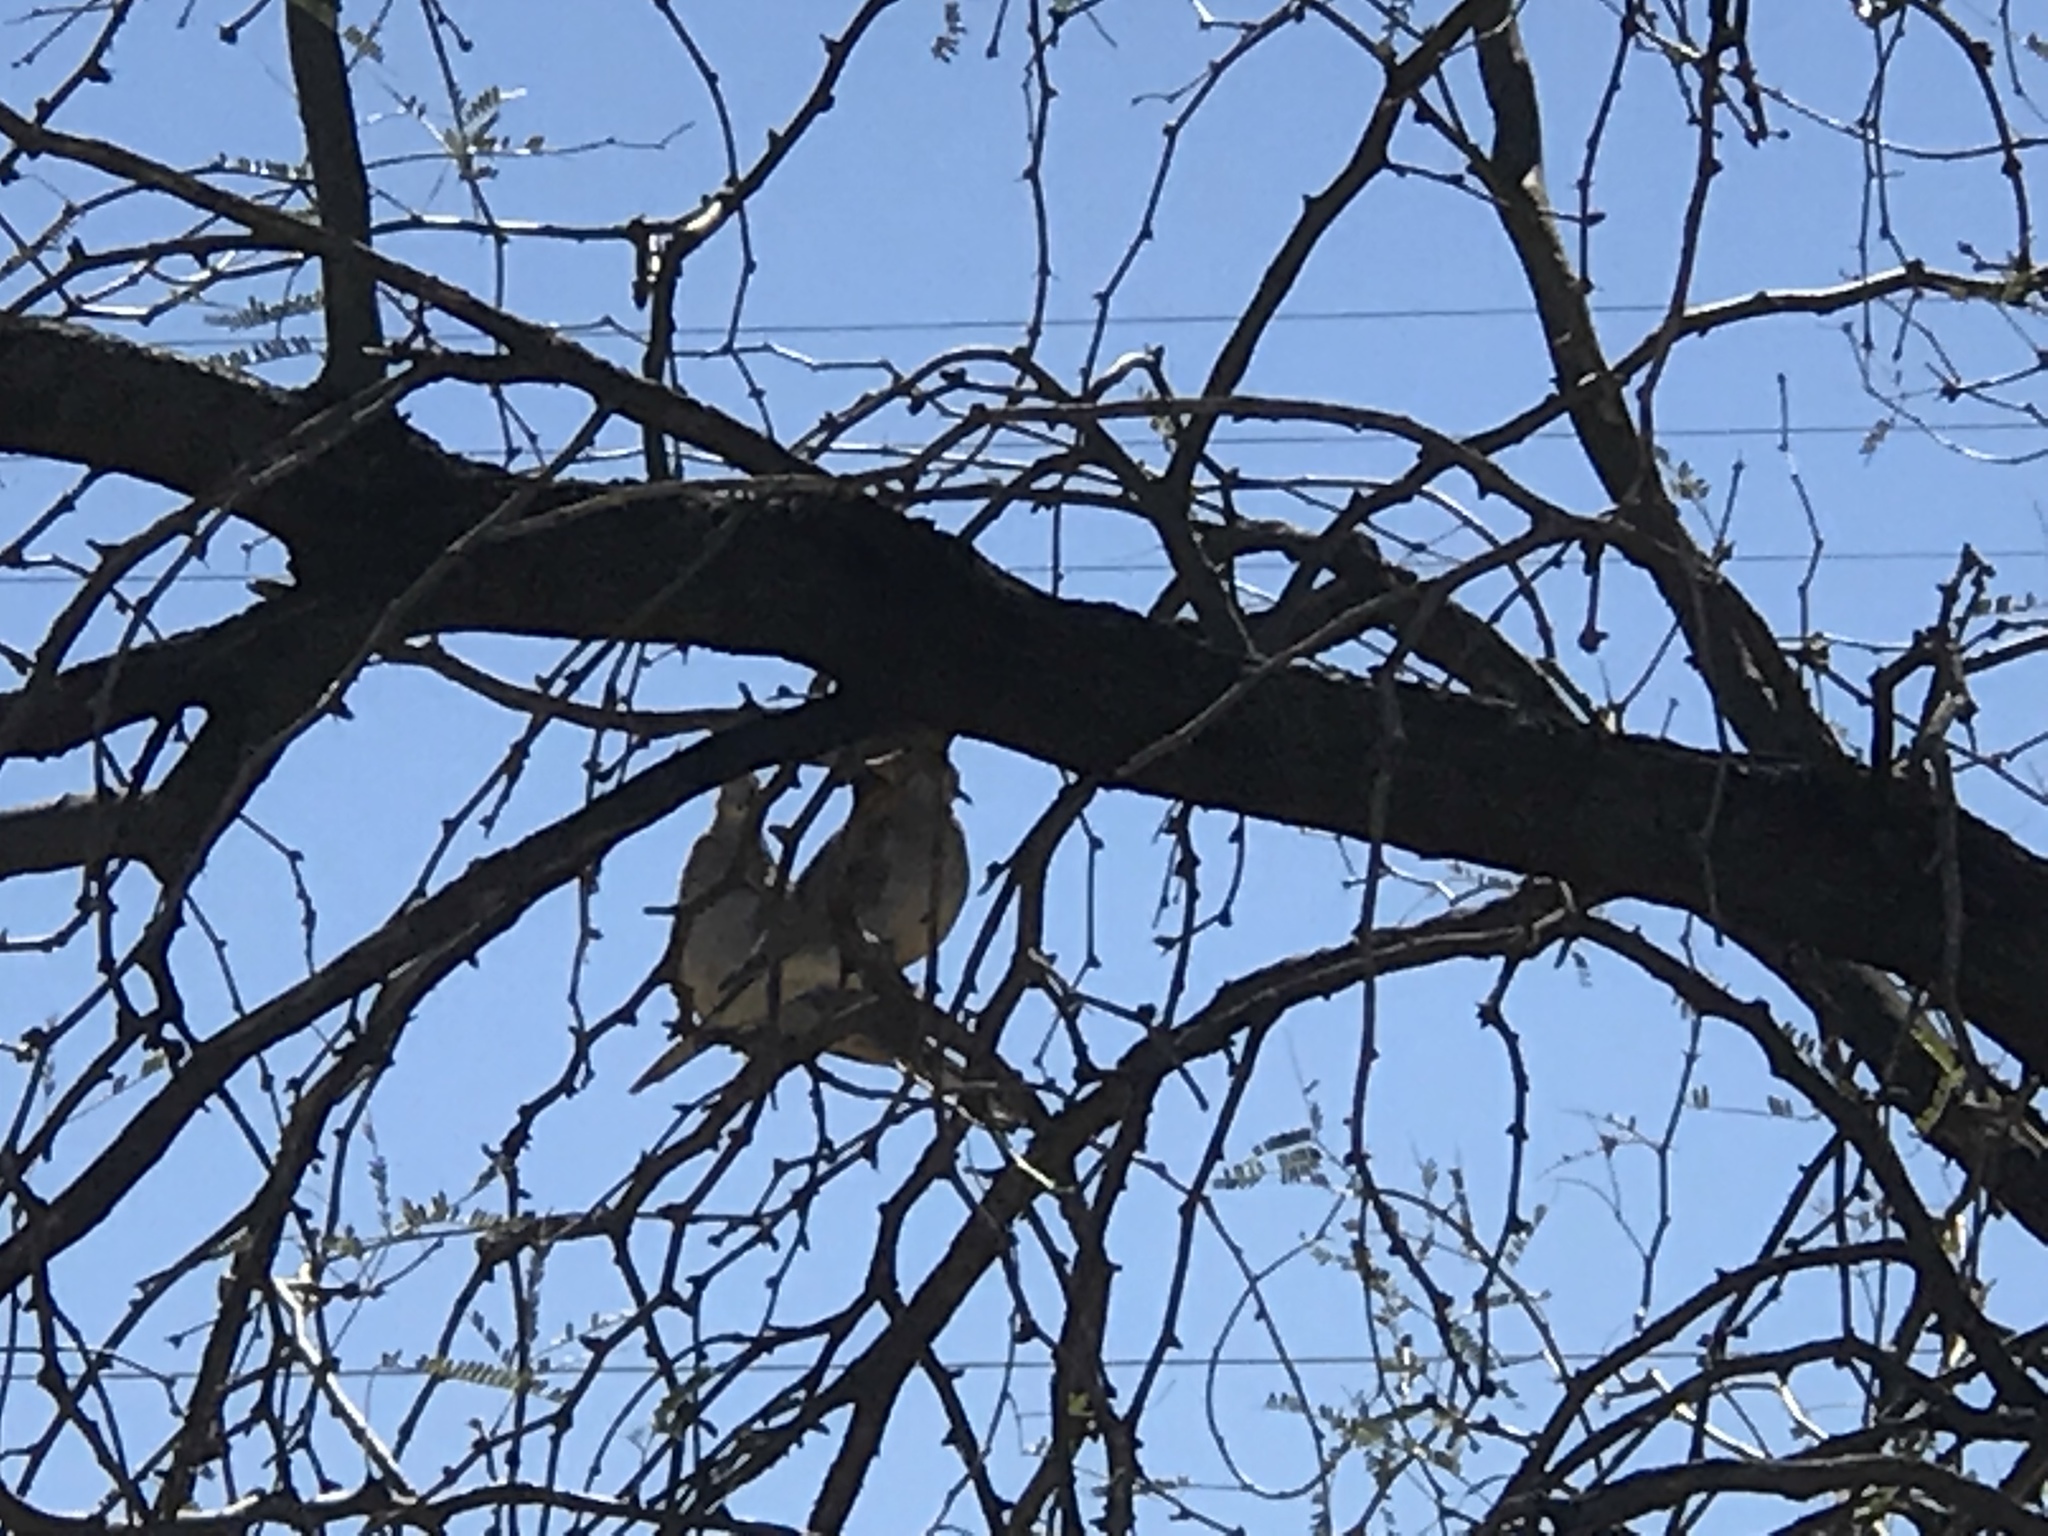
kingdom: Animalia
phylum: Chordata
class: Aves
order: Columbiformes
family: Columbidae
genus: Zenaida
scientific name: Zenaida macroura
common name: Mourning dove
